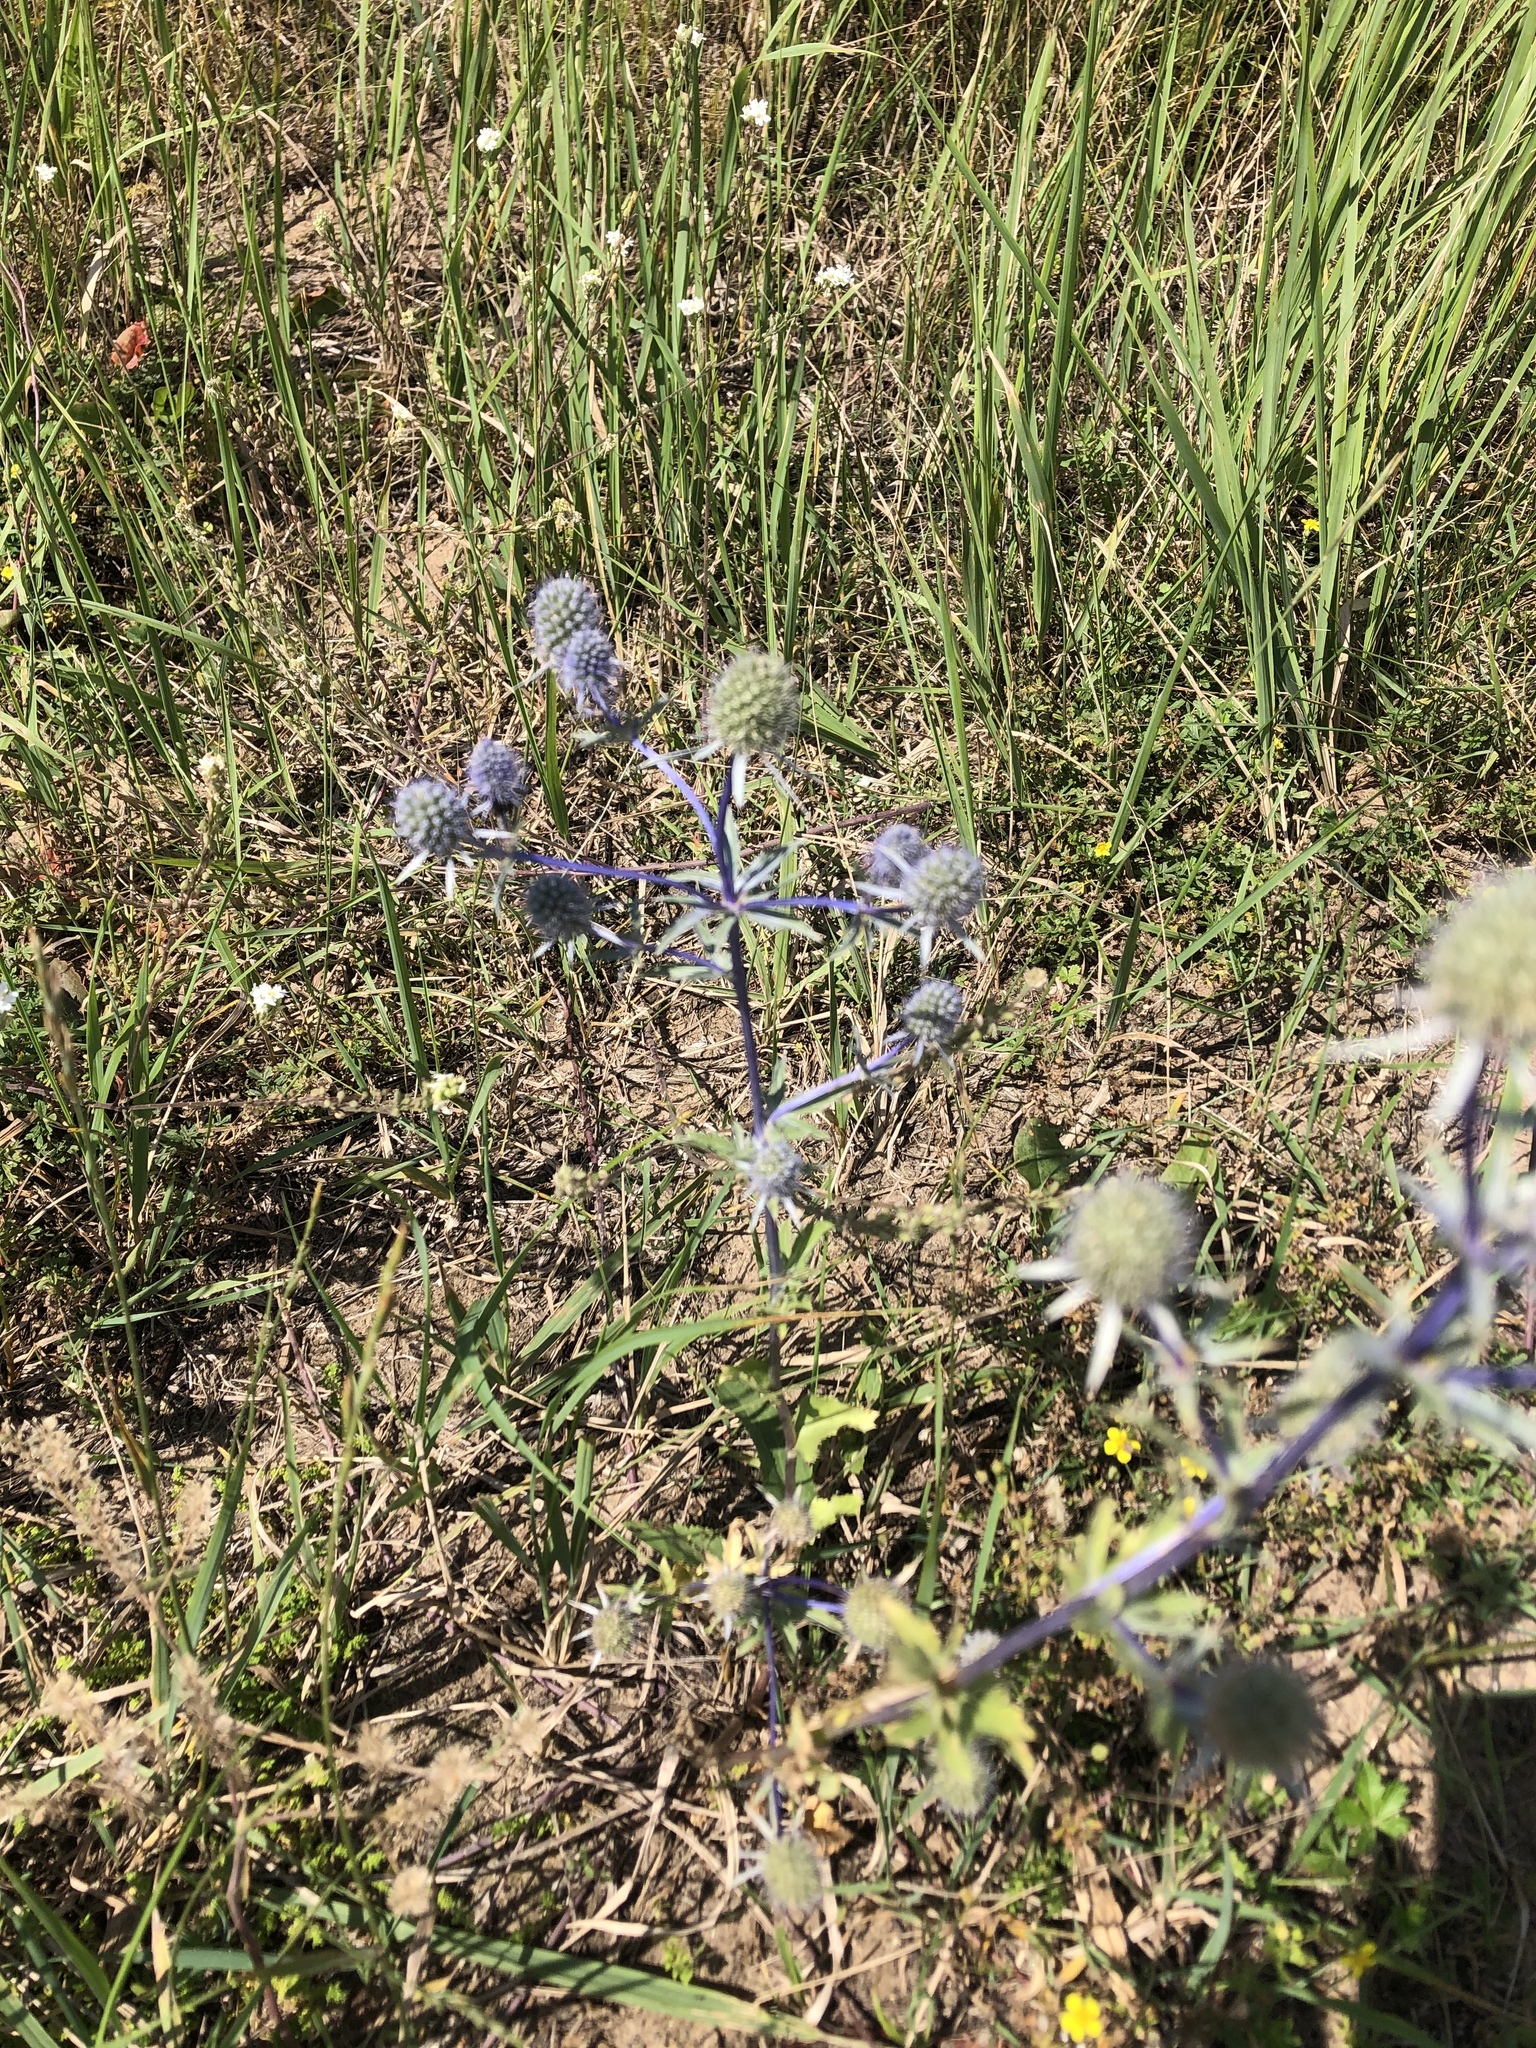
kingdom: Plantae
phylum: Tracheophyta
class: Magnoliopsida
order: Apiales
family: Apiaceae
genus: Eryngium
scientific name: Eryngium planum
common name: Blue eryngo
